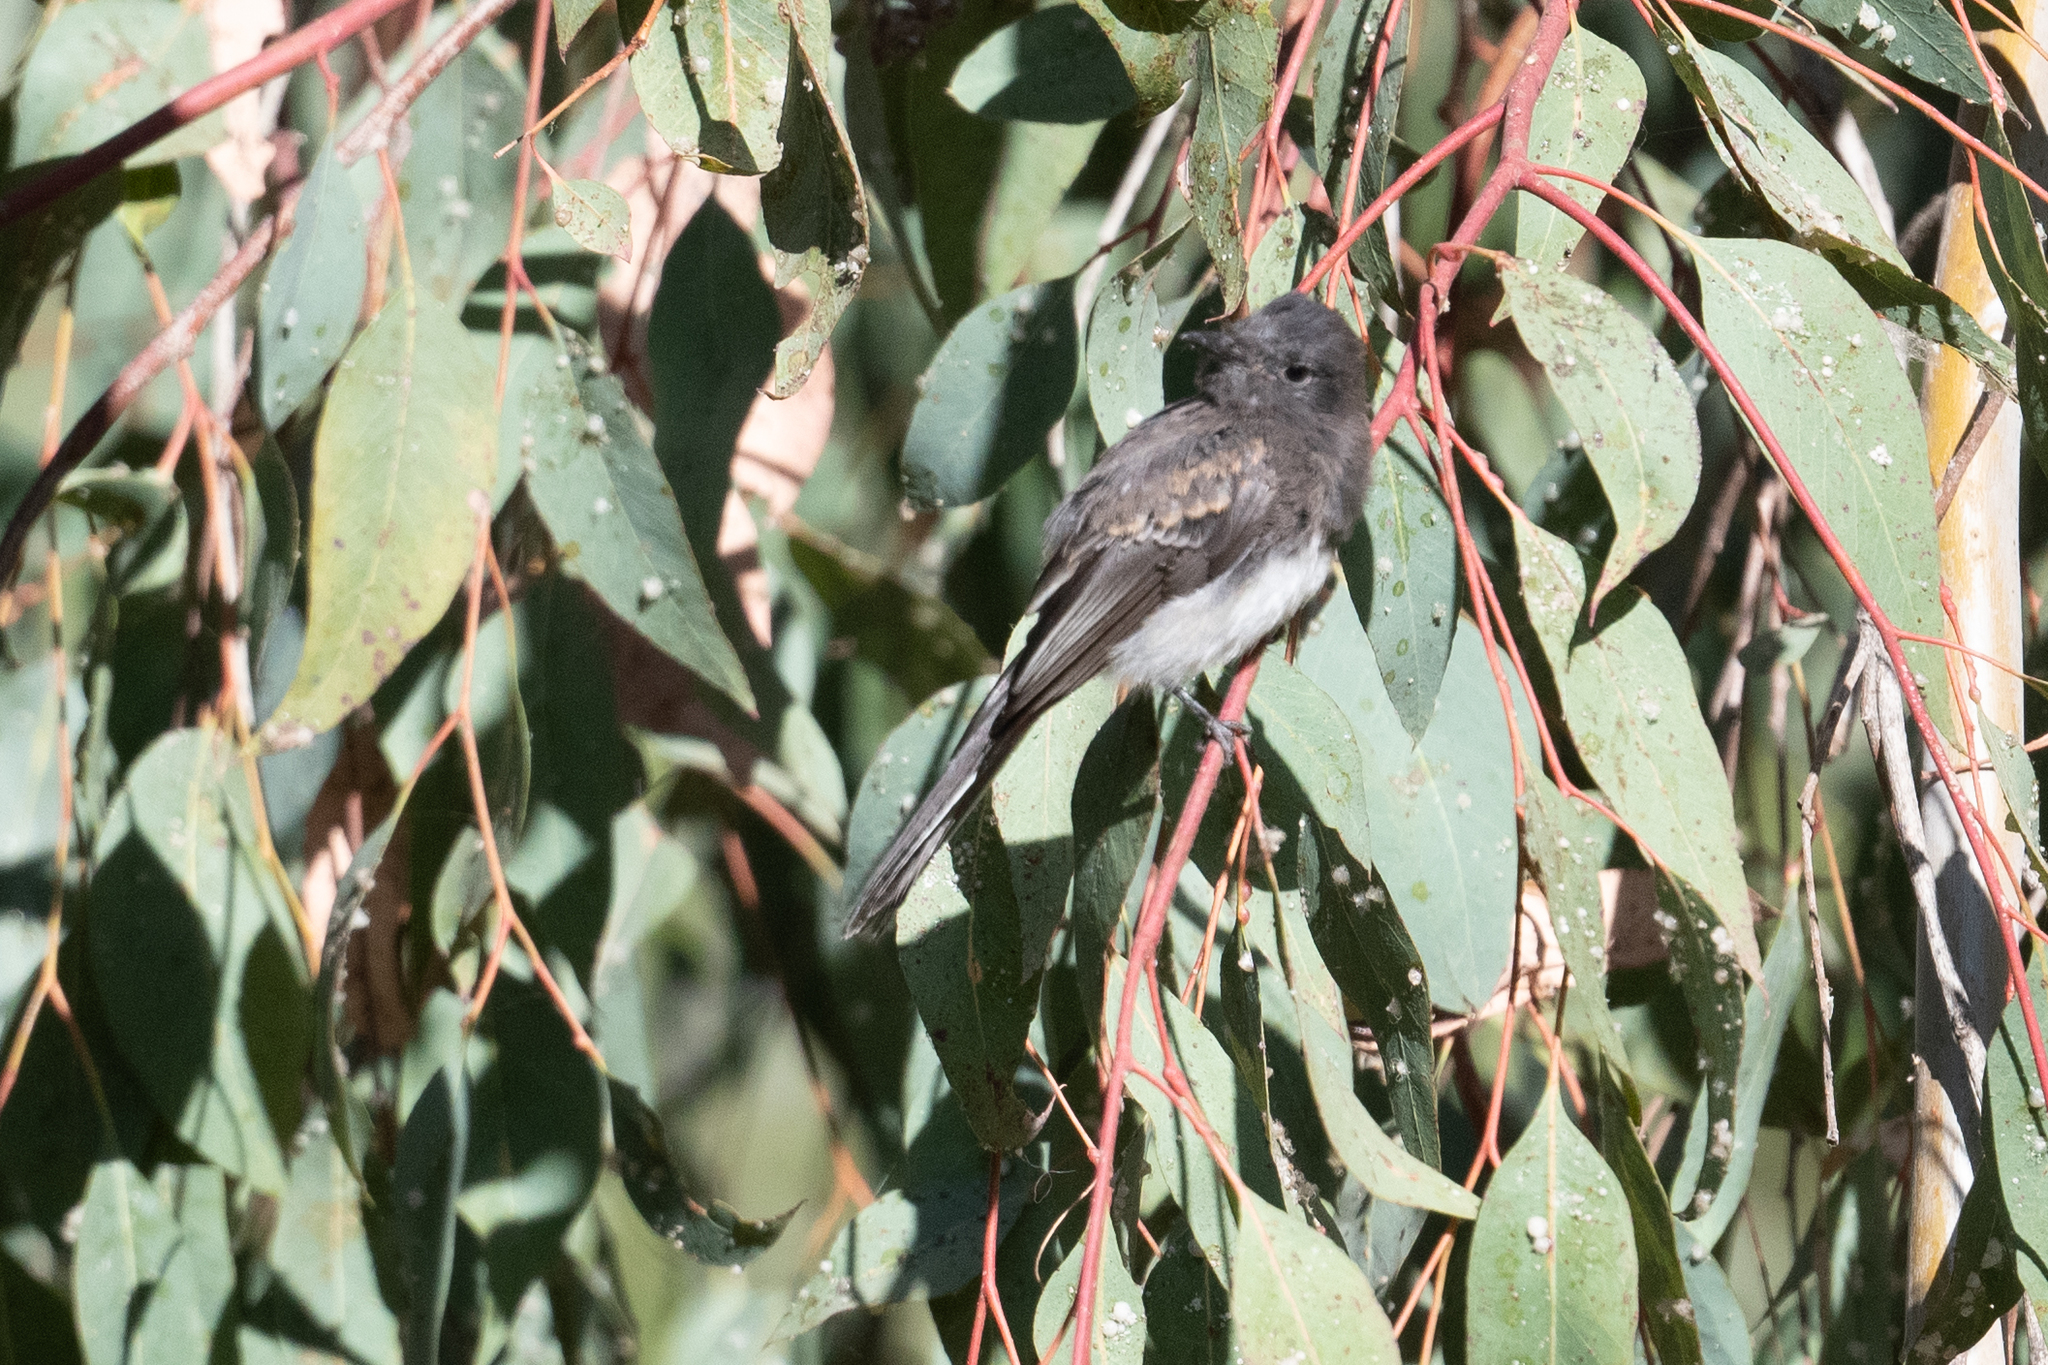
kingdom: Animalia
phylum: Chordata
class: Aves
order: Passeriformes
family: Tyrannidae
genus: Sayornis
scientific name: Sayornis nigricans
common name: Black phoebe
